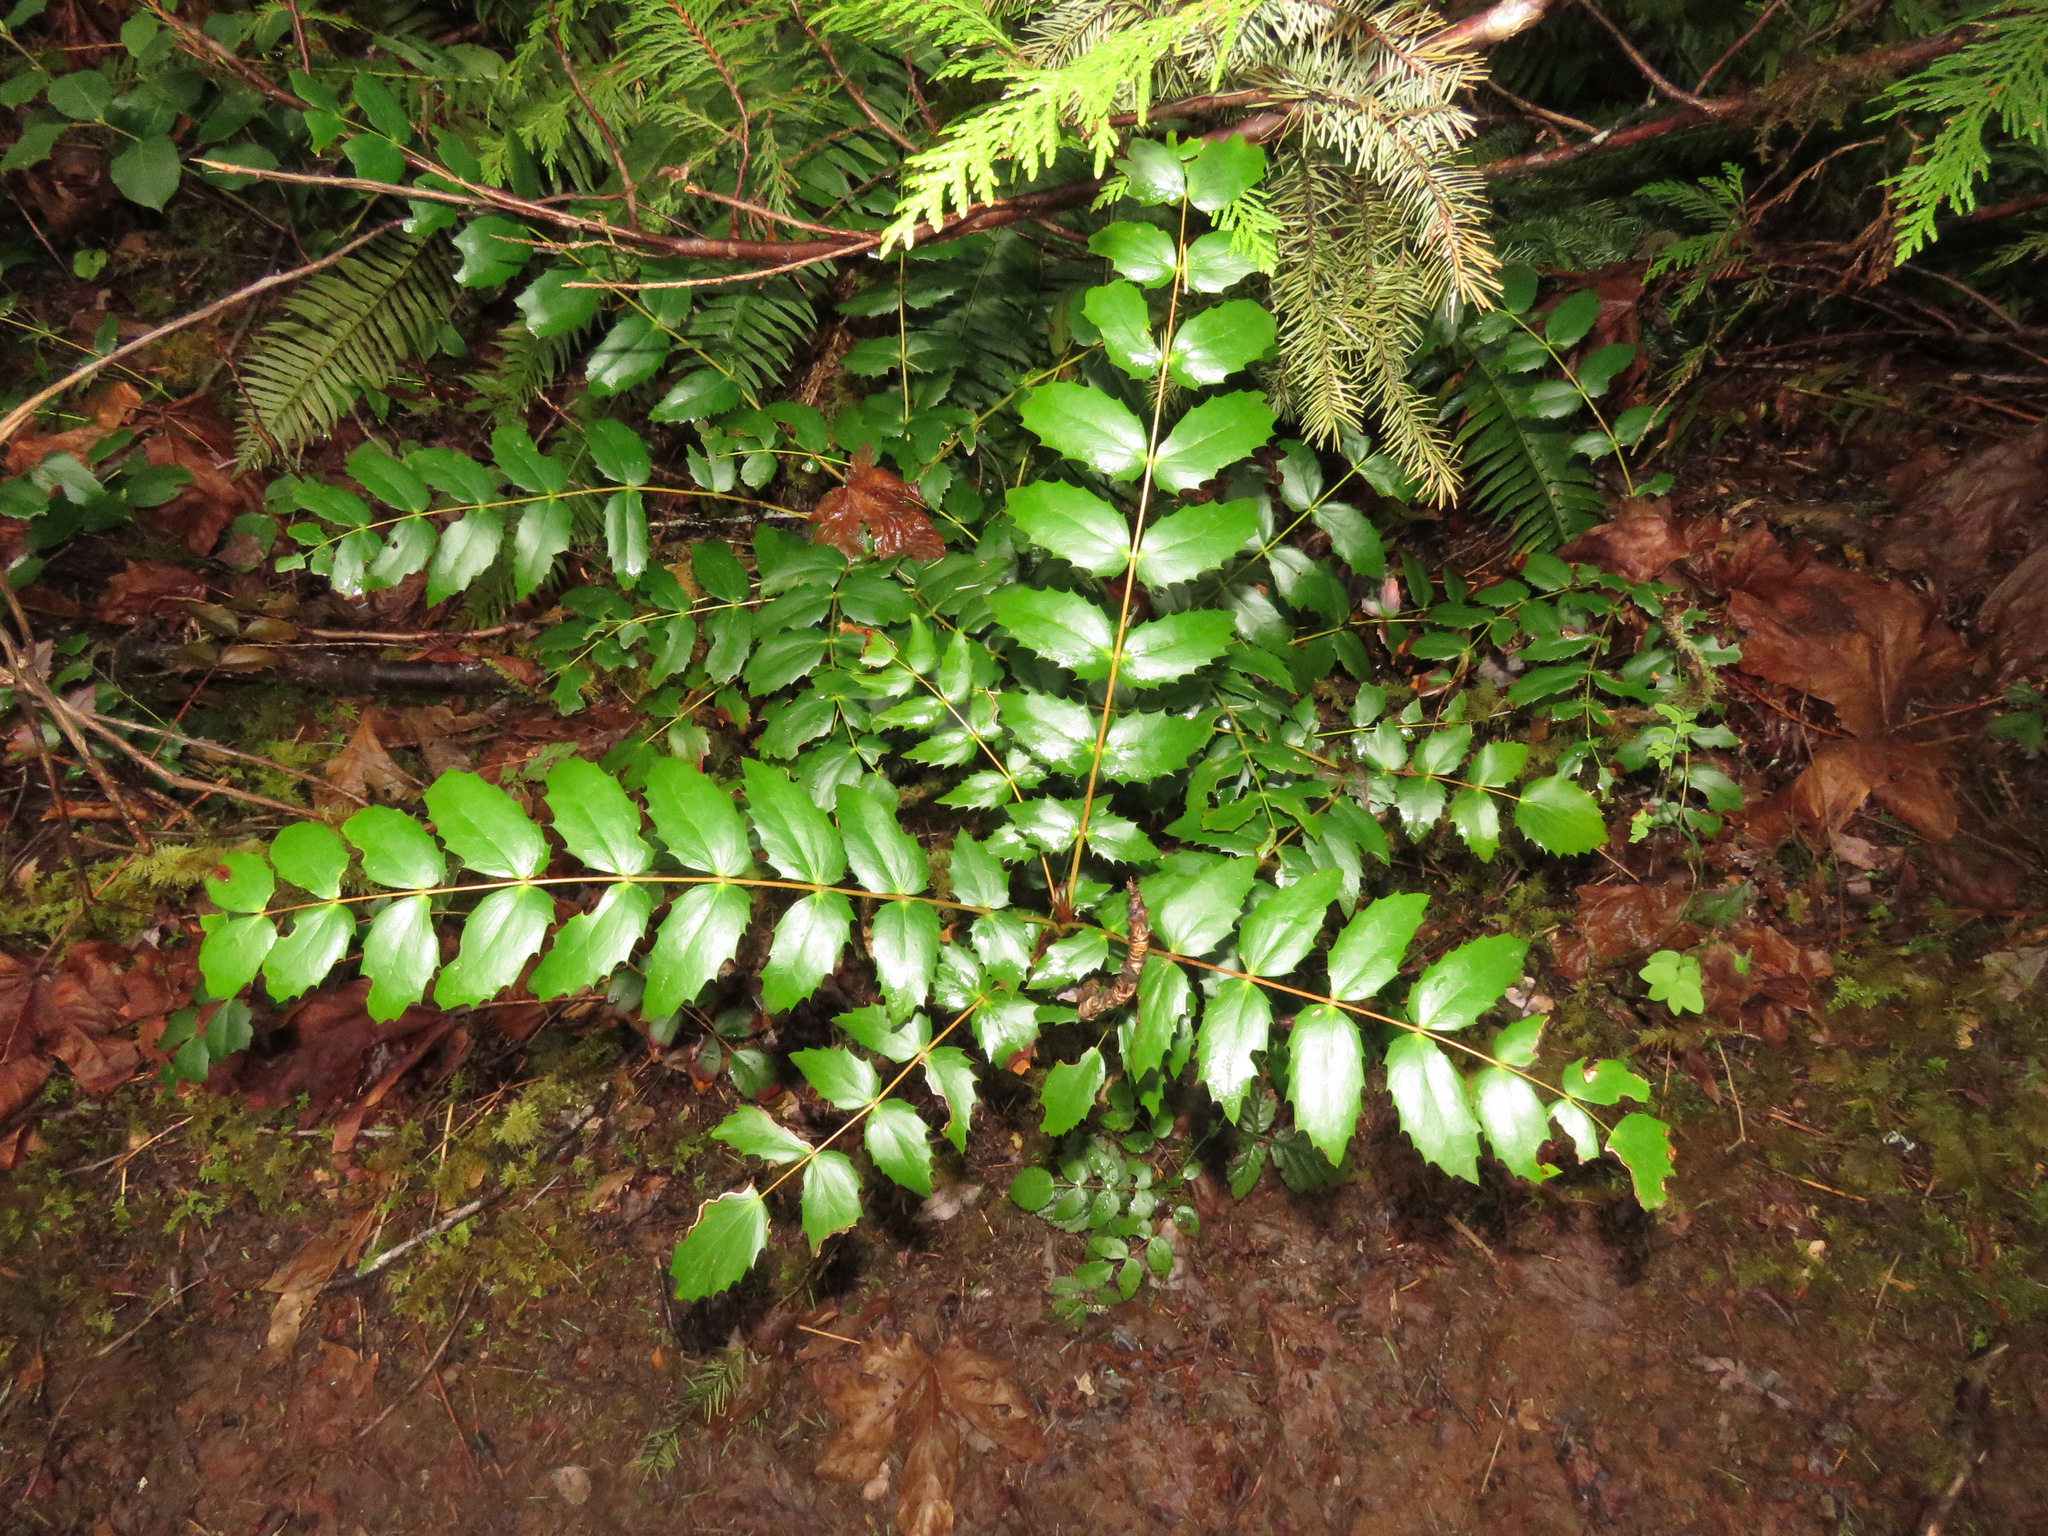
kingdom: Plantae
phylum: Tracheophyta
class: Magnoliopsida
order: Ranunculales
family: Berberidaceae
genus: Mahonia
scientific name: Mahonia nervosa
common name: Cascade oregon-grape
